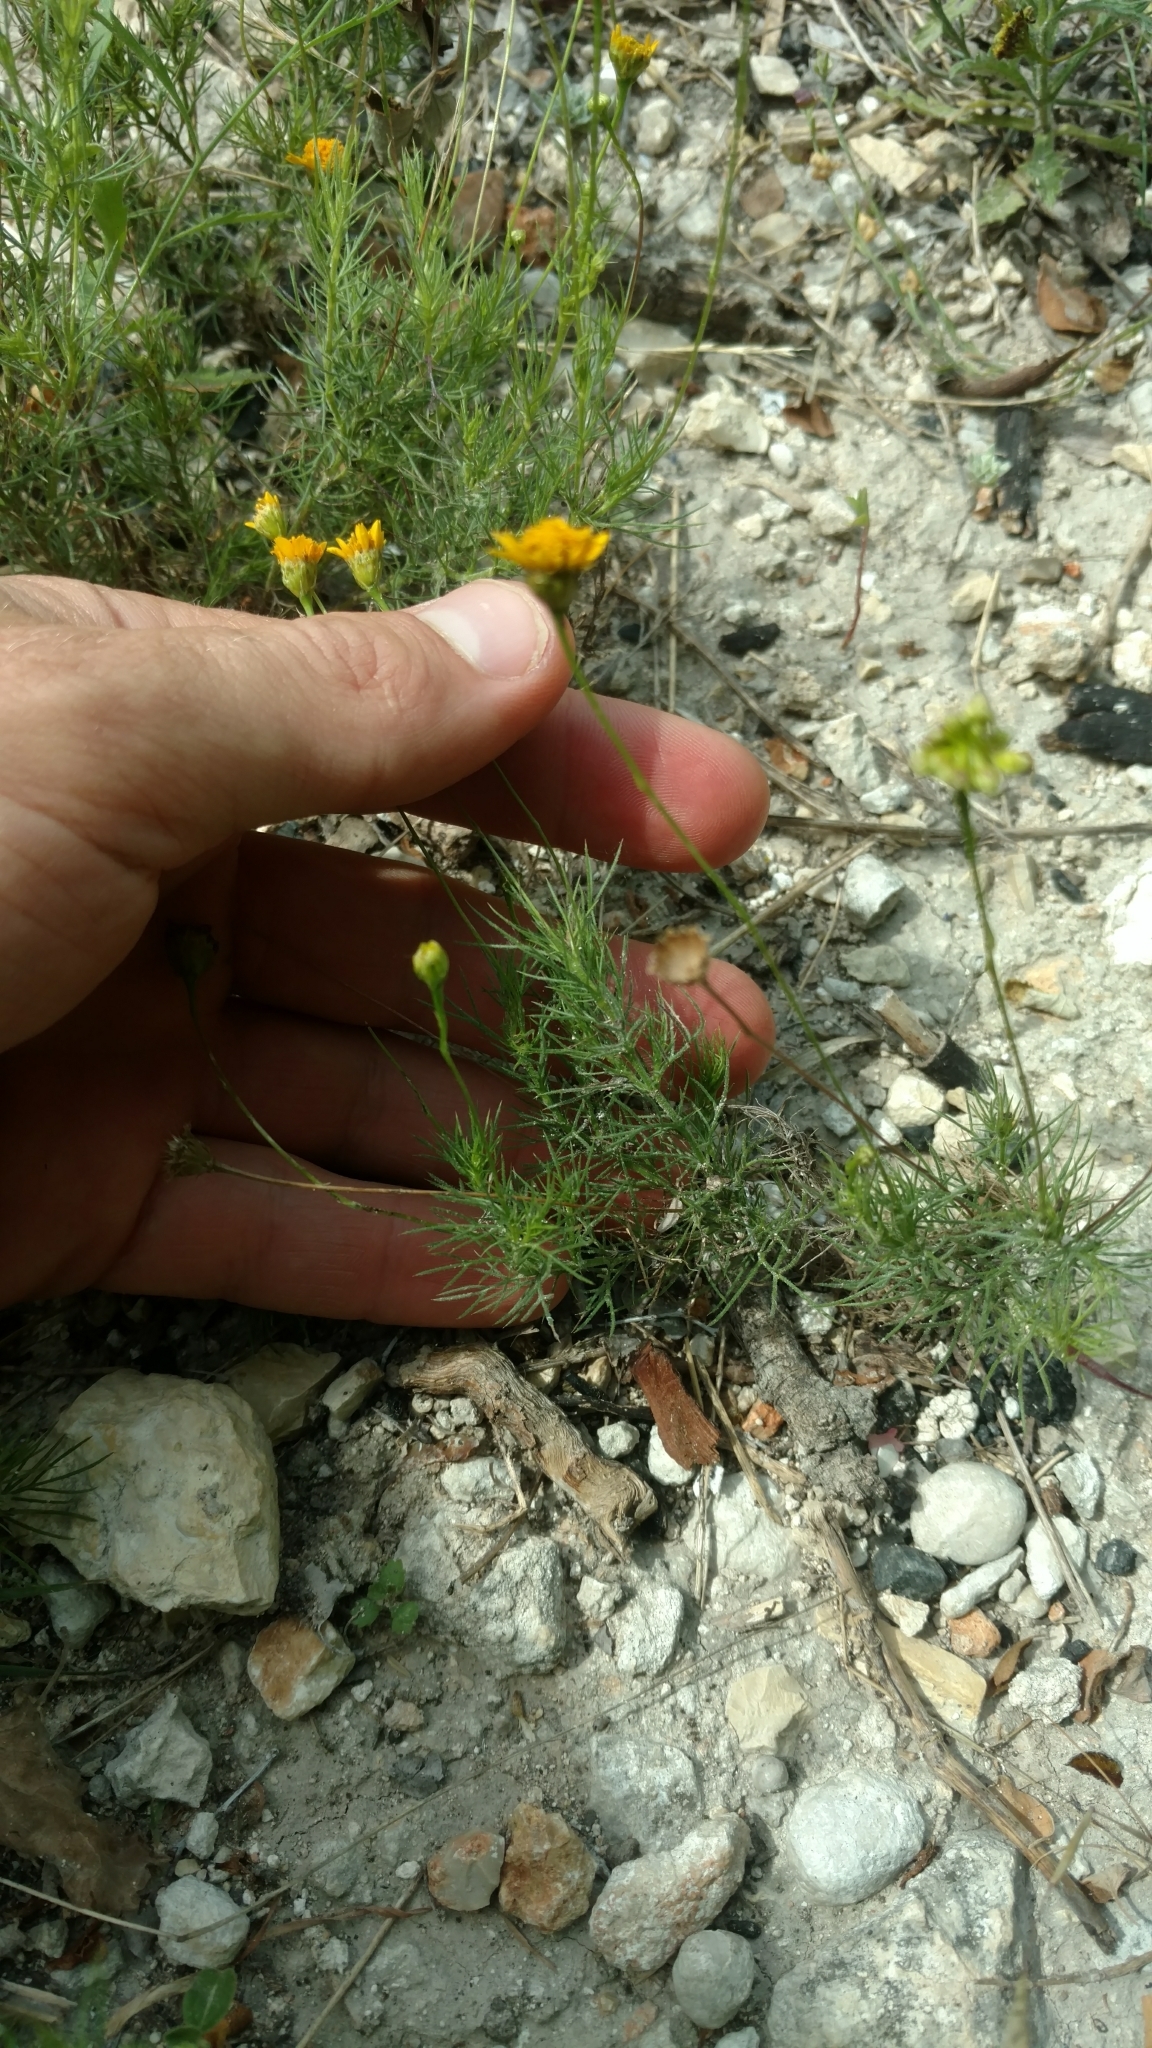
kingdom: Plantae
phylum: Tracheophyta
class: Magnoliopsida
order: Asterales
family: Asteraceae
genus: Thymophylla
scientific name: Thymophylla tenuiloba
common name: Dahlberg's daisy
